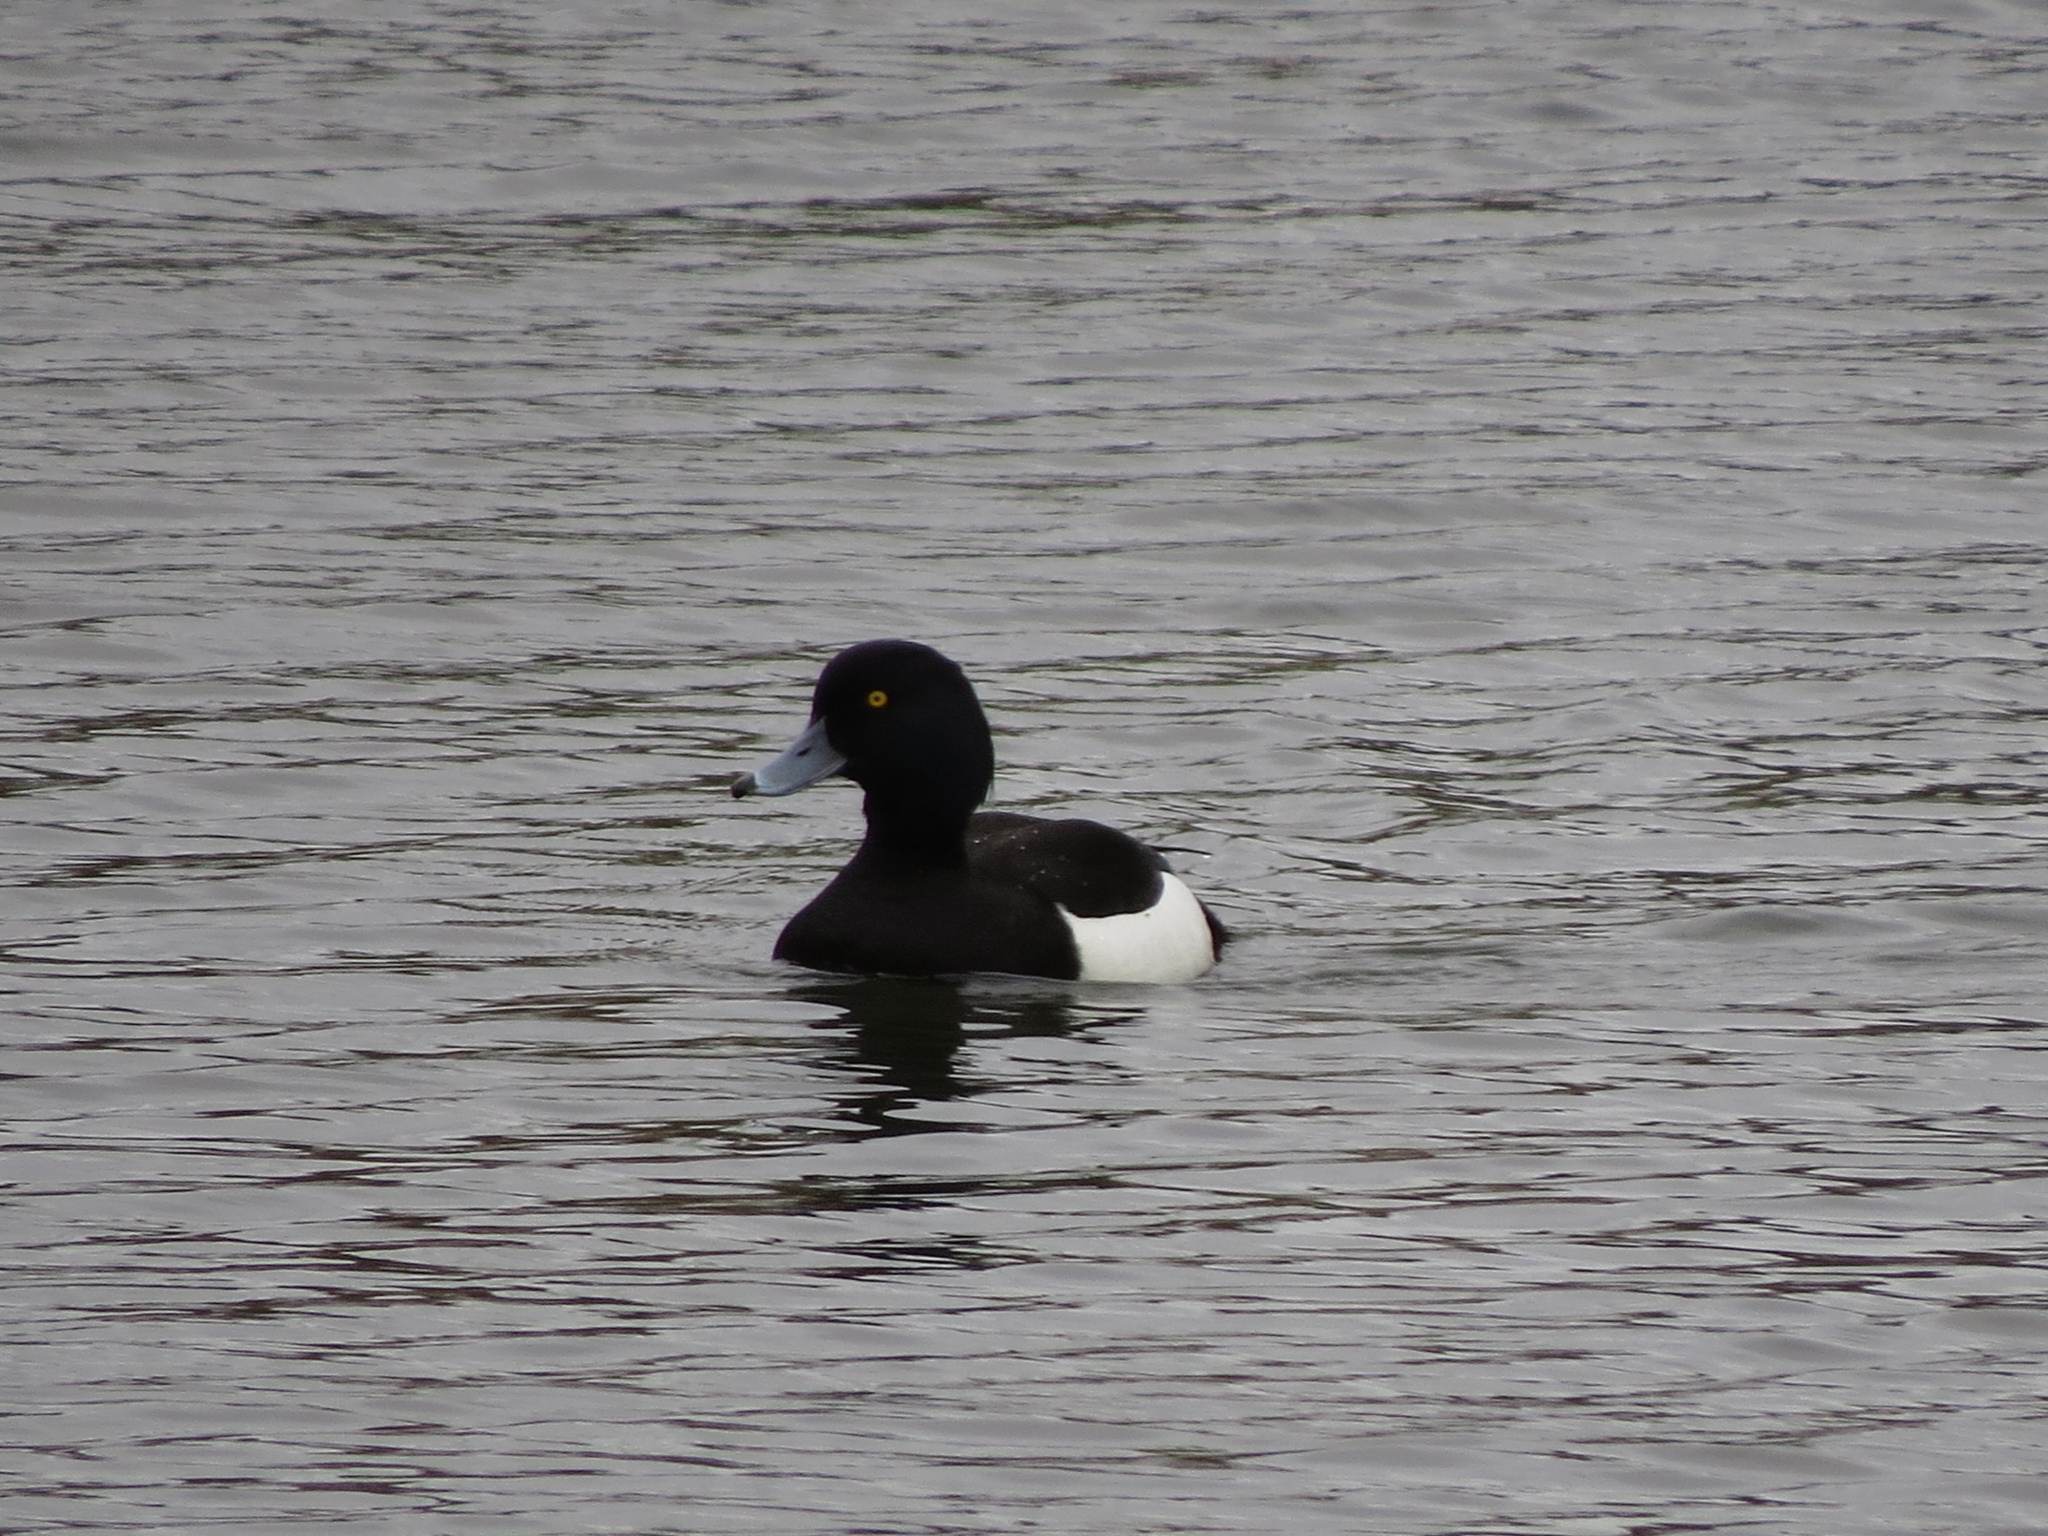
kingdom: Animalia
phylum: Chordata
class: Aves
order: Anseriformes
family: Anatidae
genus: Aythya
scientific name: Aythya fuligula
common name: Tufted duck
